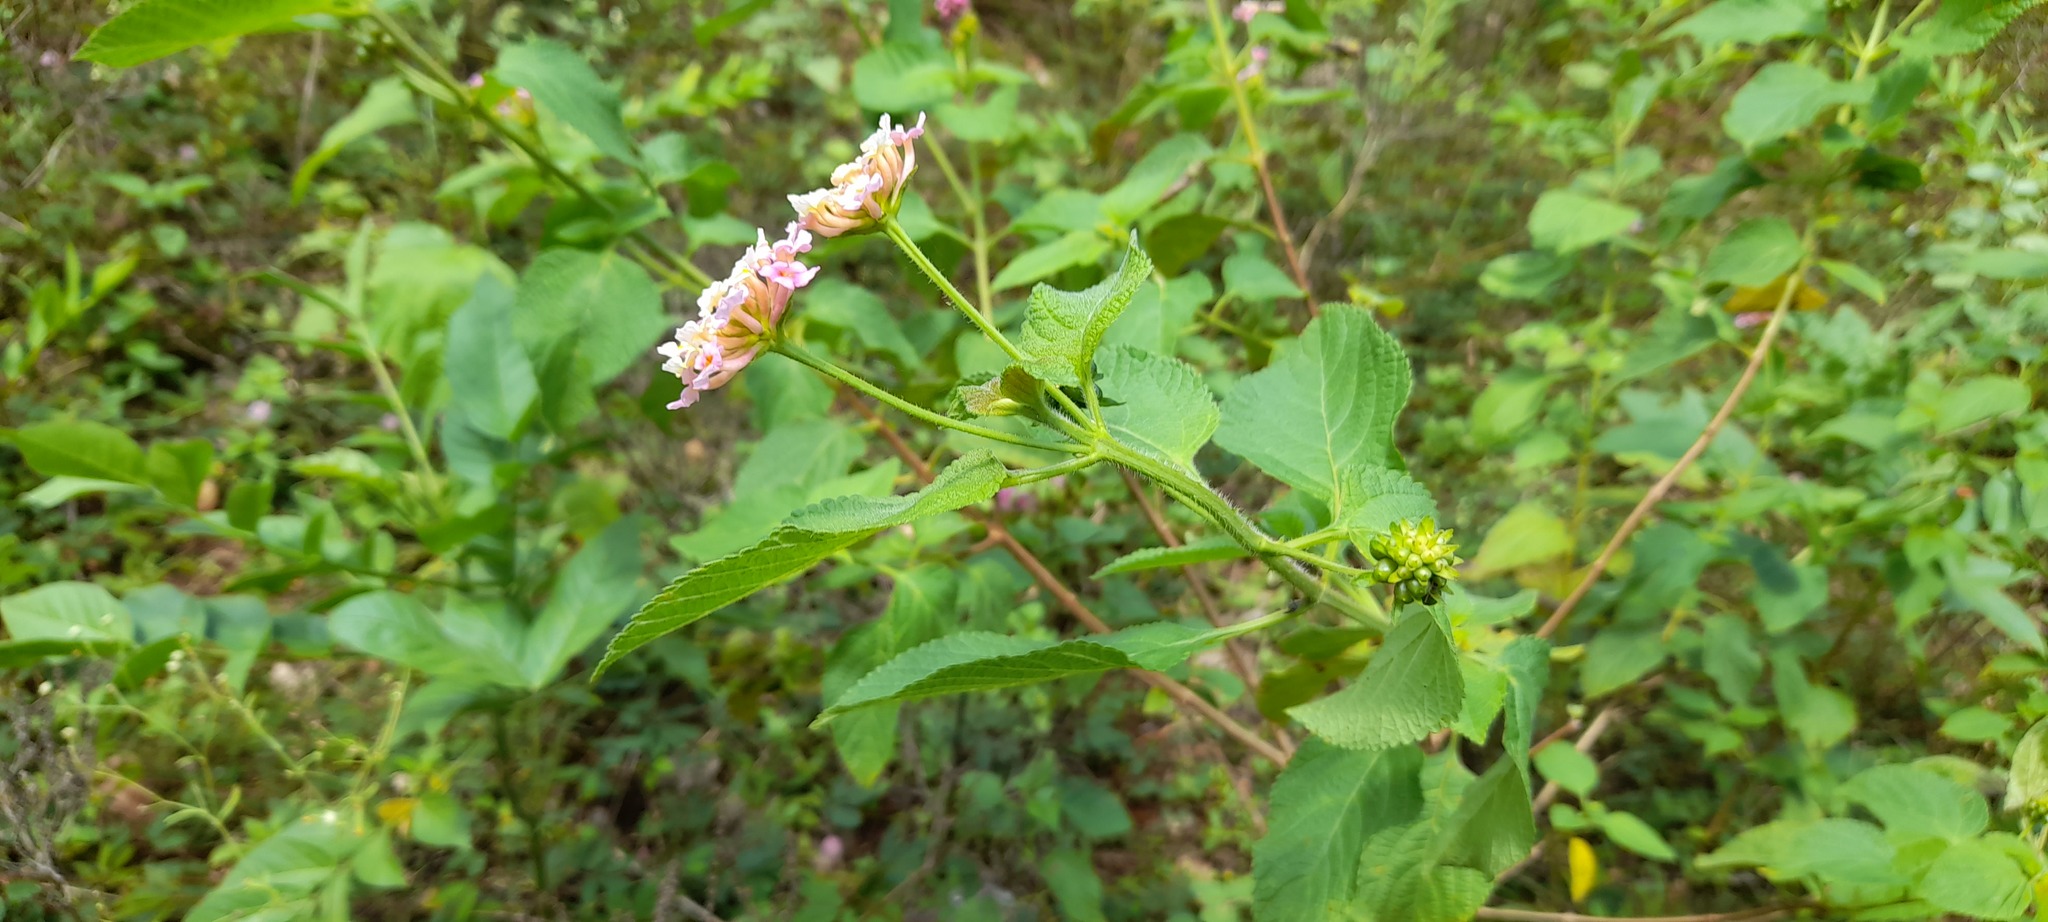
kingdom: Plantae
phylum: Tracheophyta
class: Magnoliopsida
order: Lamiales
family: Verbenaceae
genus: Lantana
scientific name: Lantana camara
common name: Lantana
